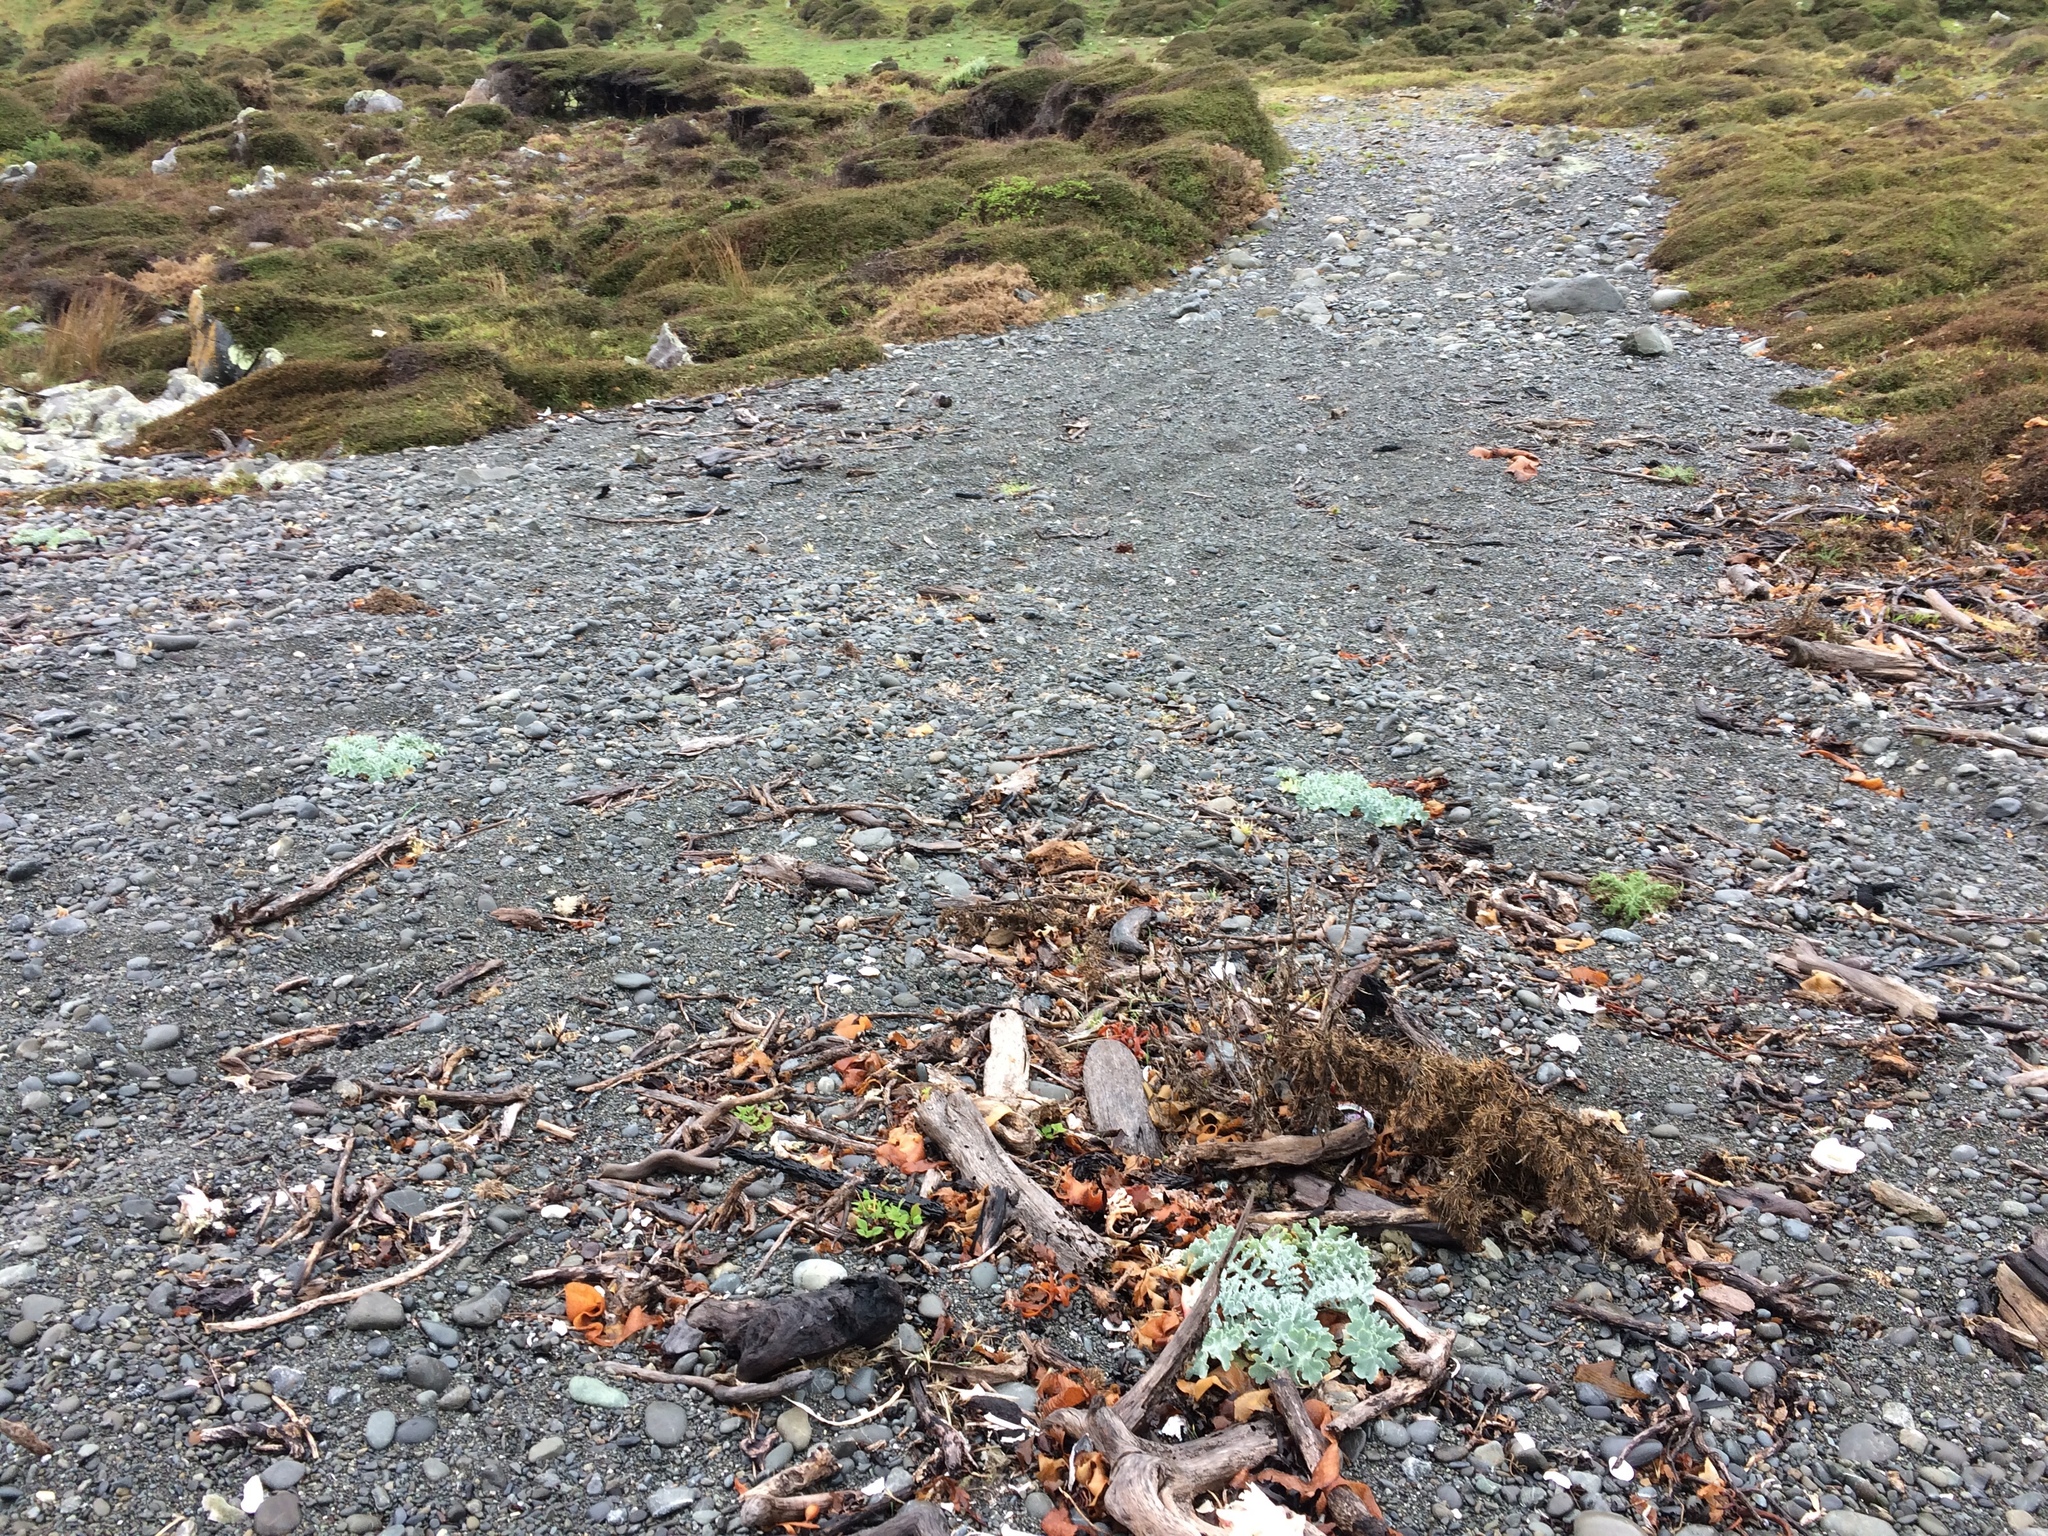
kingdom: Plantae
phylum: Tracheophyta
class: Magnoliopsida
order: Ranunculales
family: Papaveraceae
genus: Glaucium
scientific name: Glaucium flavum
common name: Yellow horned-poppy
